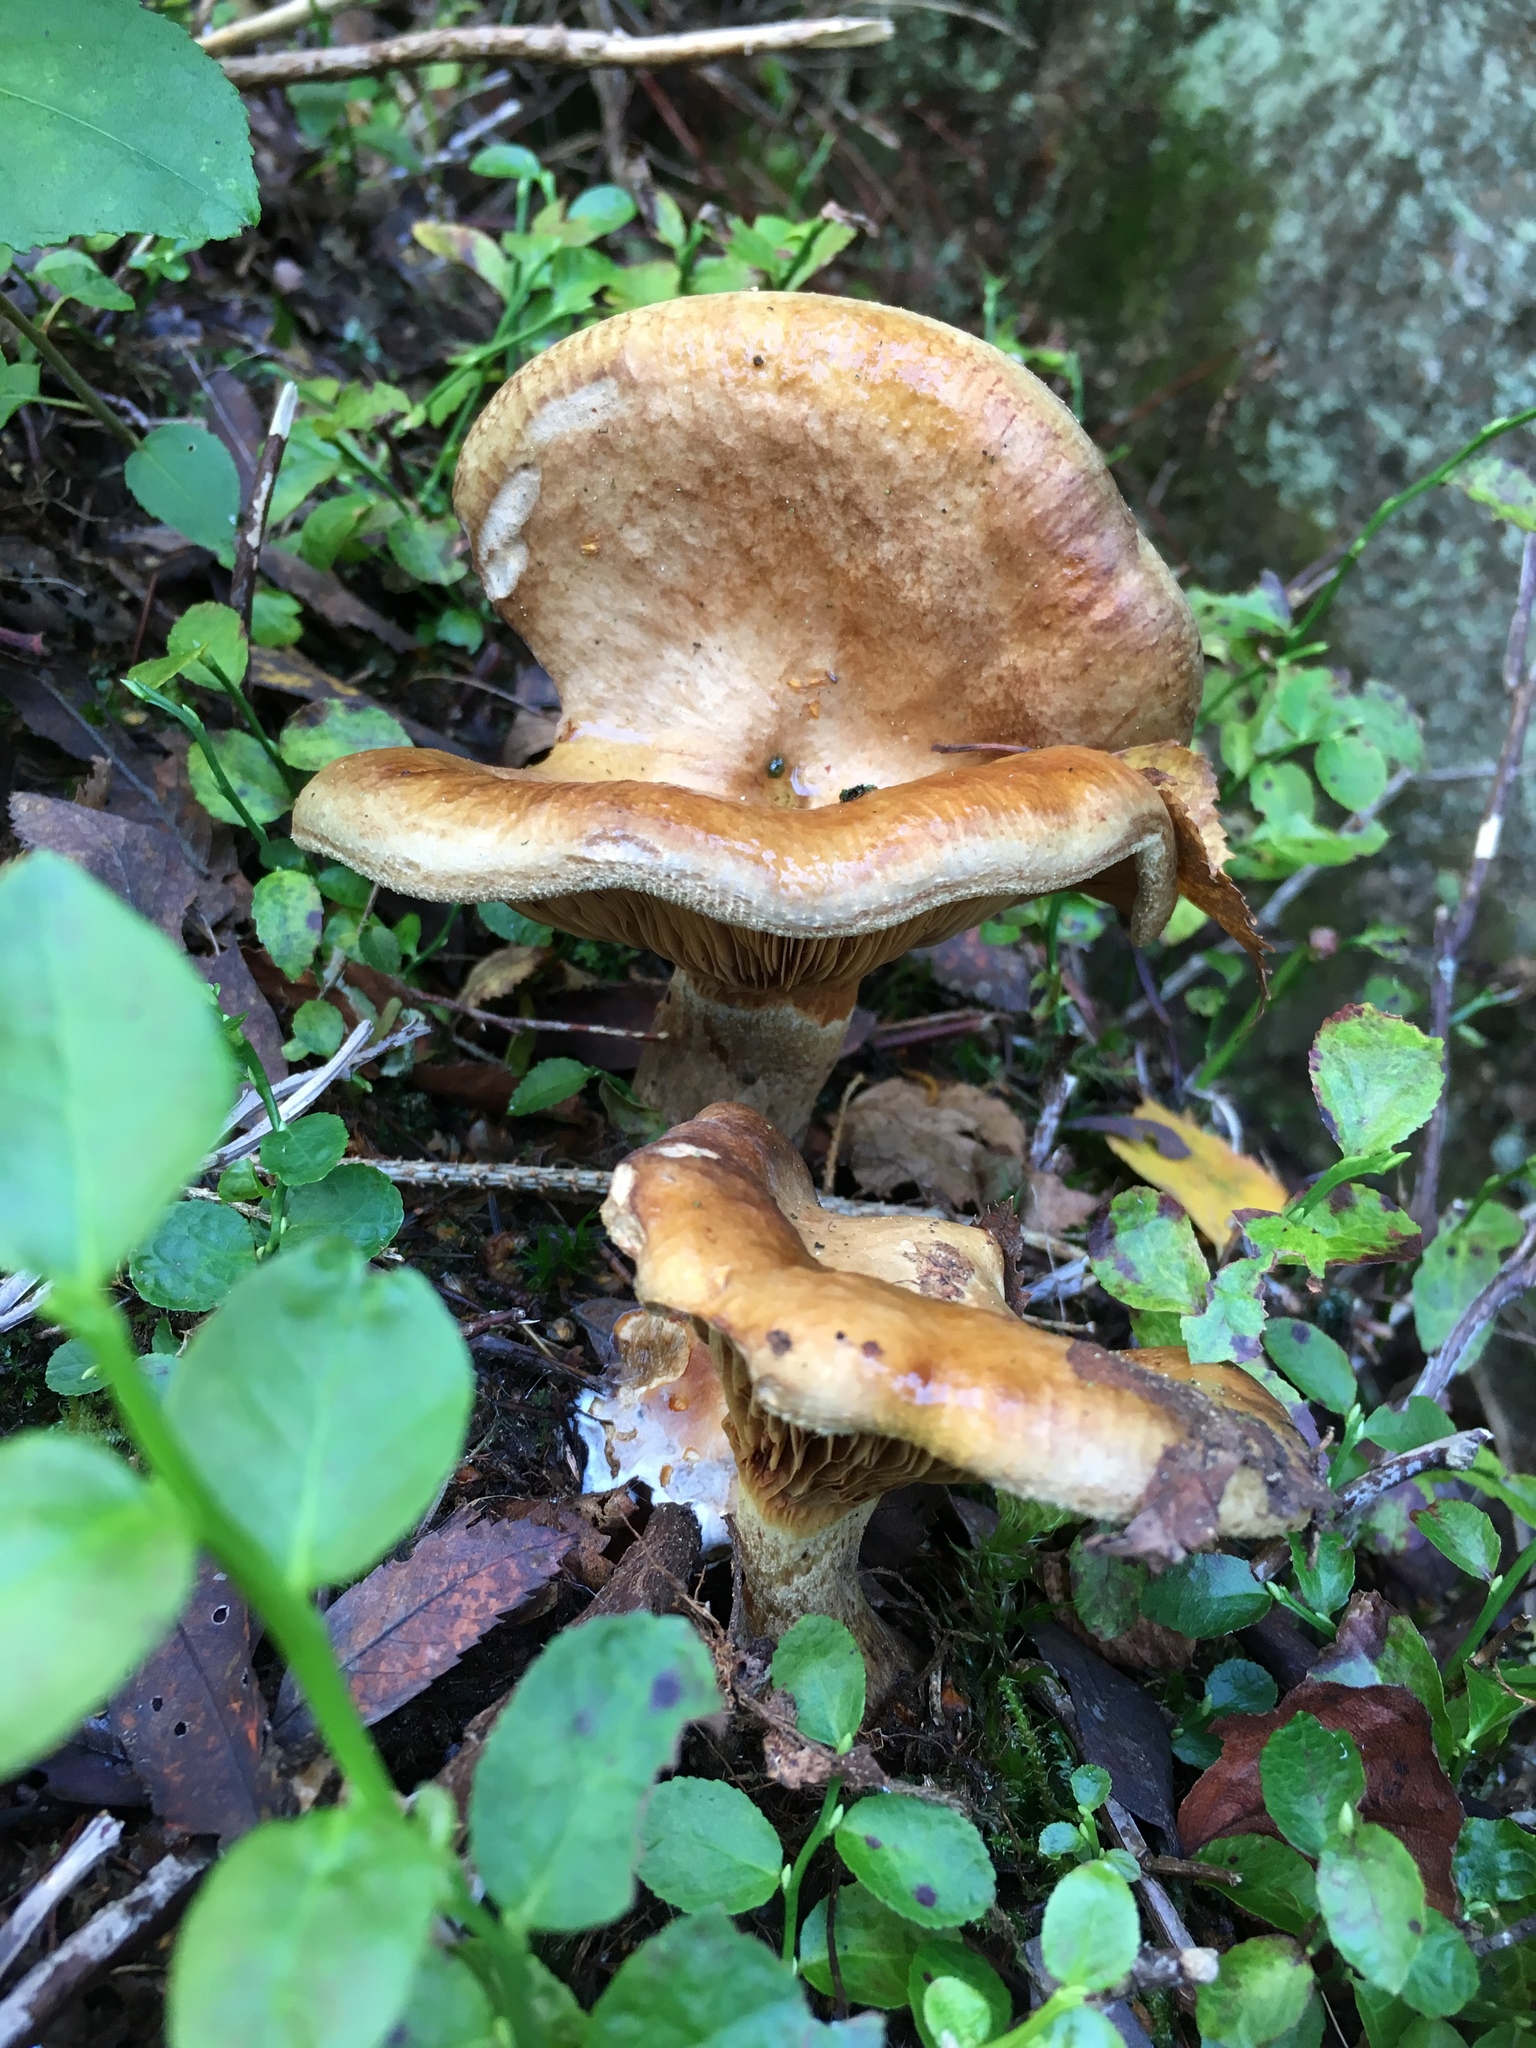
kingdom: Fungi
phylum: Basidiomycota
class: Agaricomycetes
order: Boletales
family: Paxillaceae
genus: Paxillus
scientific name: Paxillus involutus
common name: Brown roll rim
